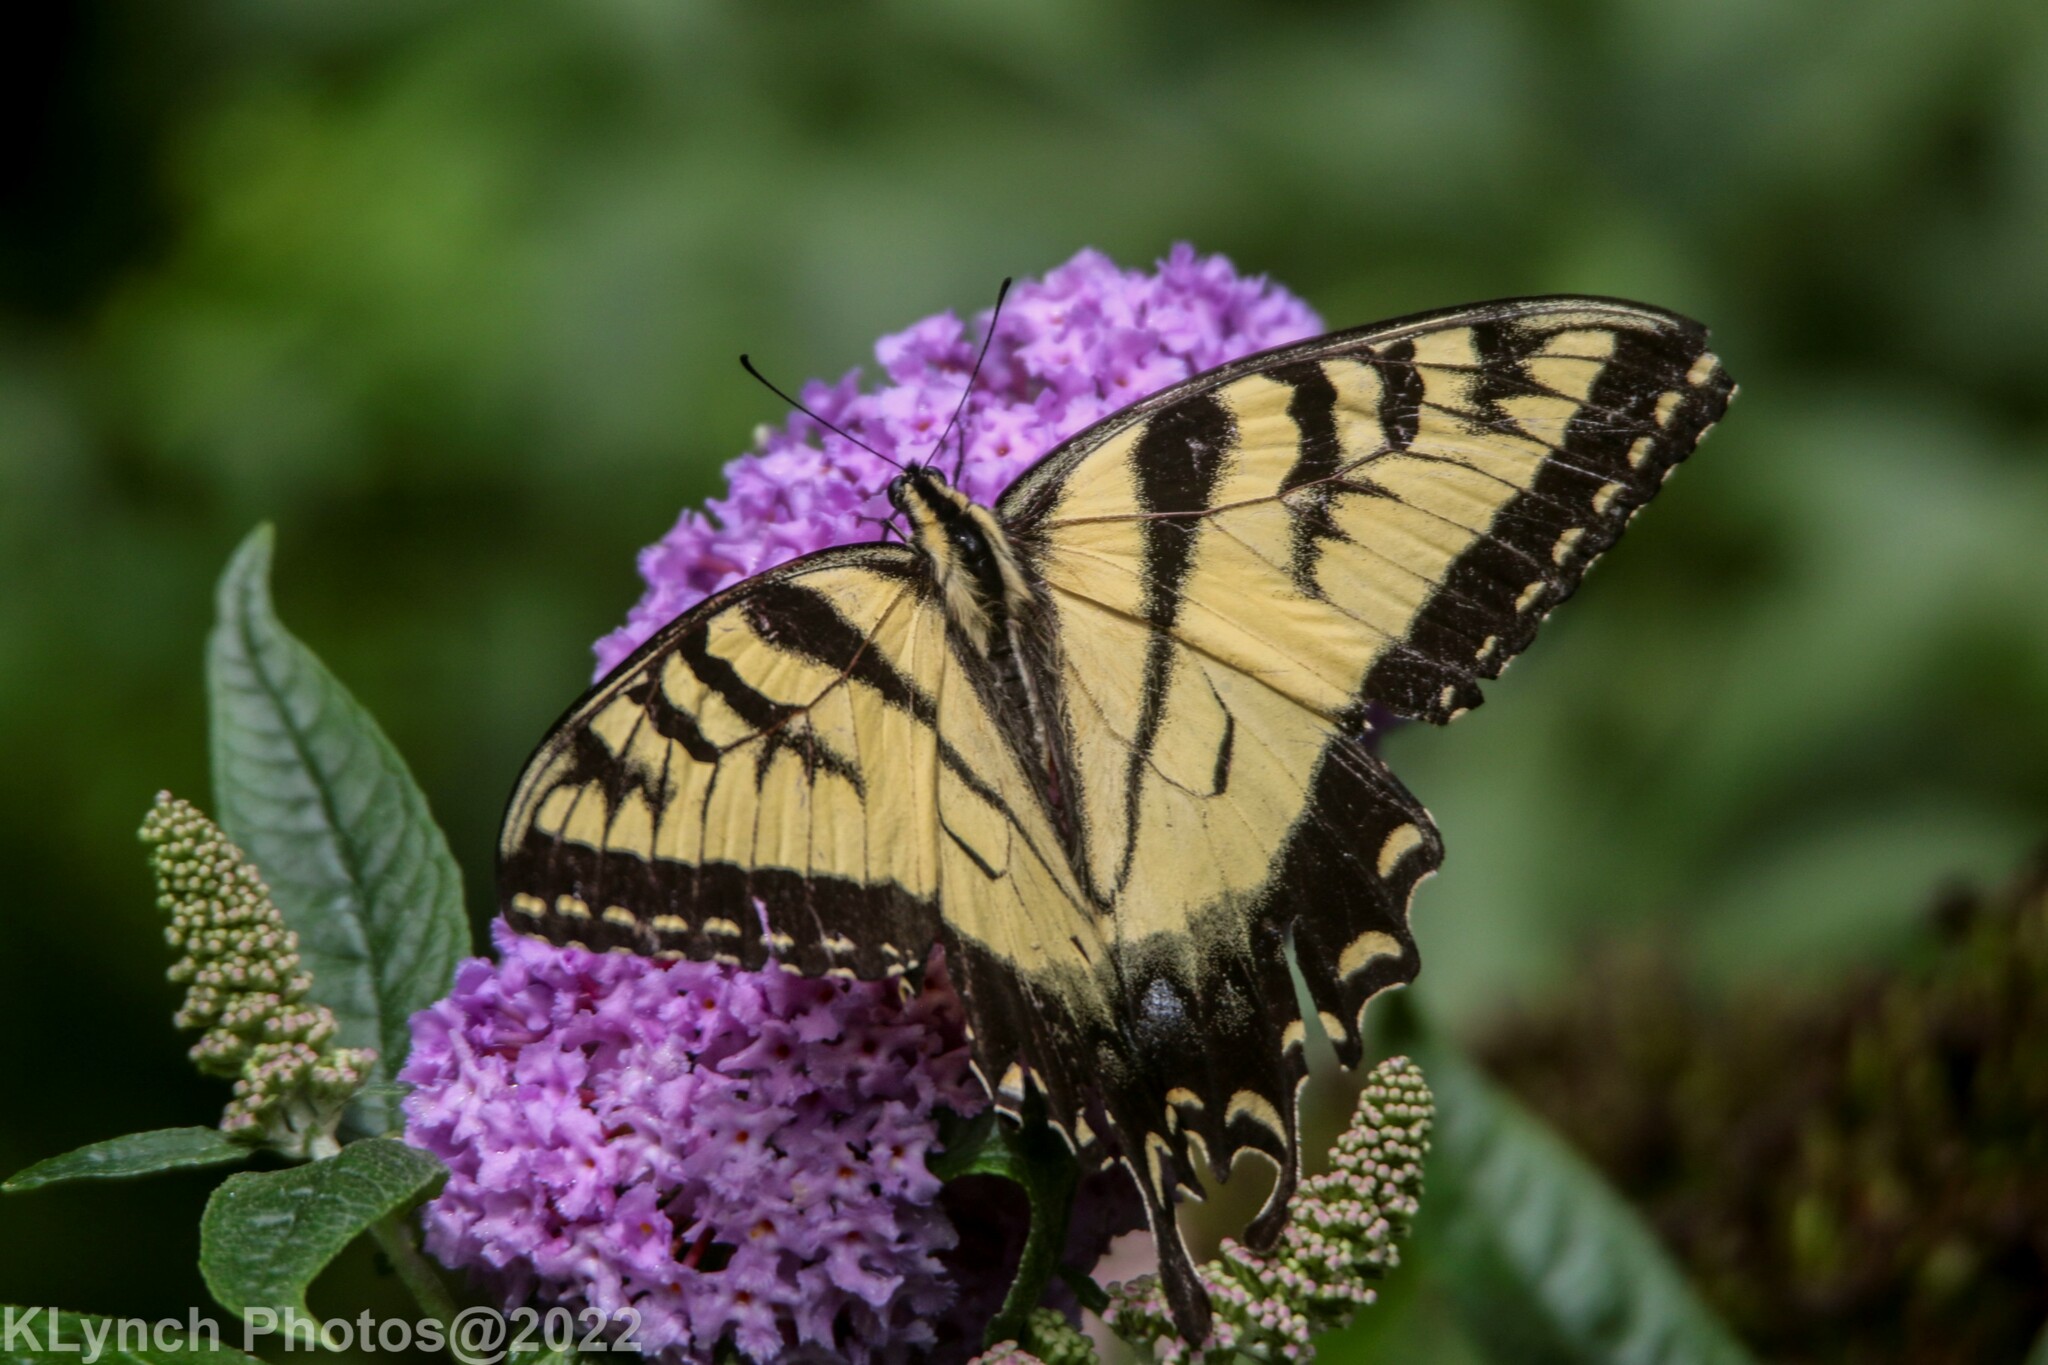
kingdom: Animalia
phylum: Arthropoda
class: Insecta
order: Lepidoptera
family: Papilionidae
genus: Papilio
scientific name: Papilio glaucus
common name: Tiger swallowtail
